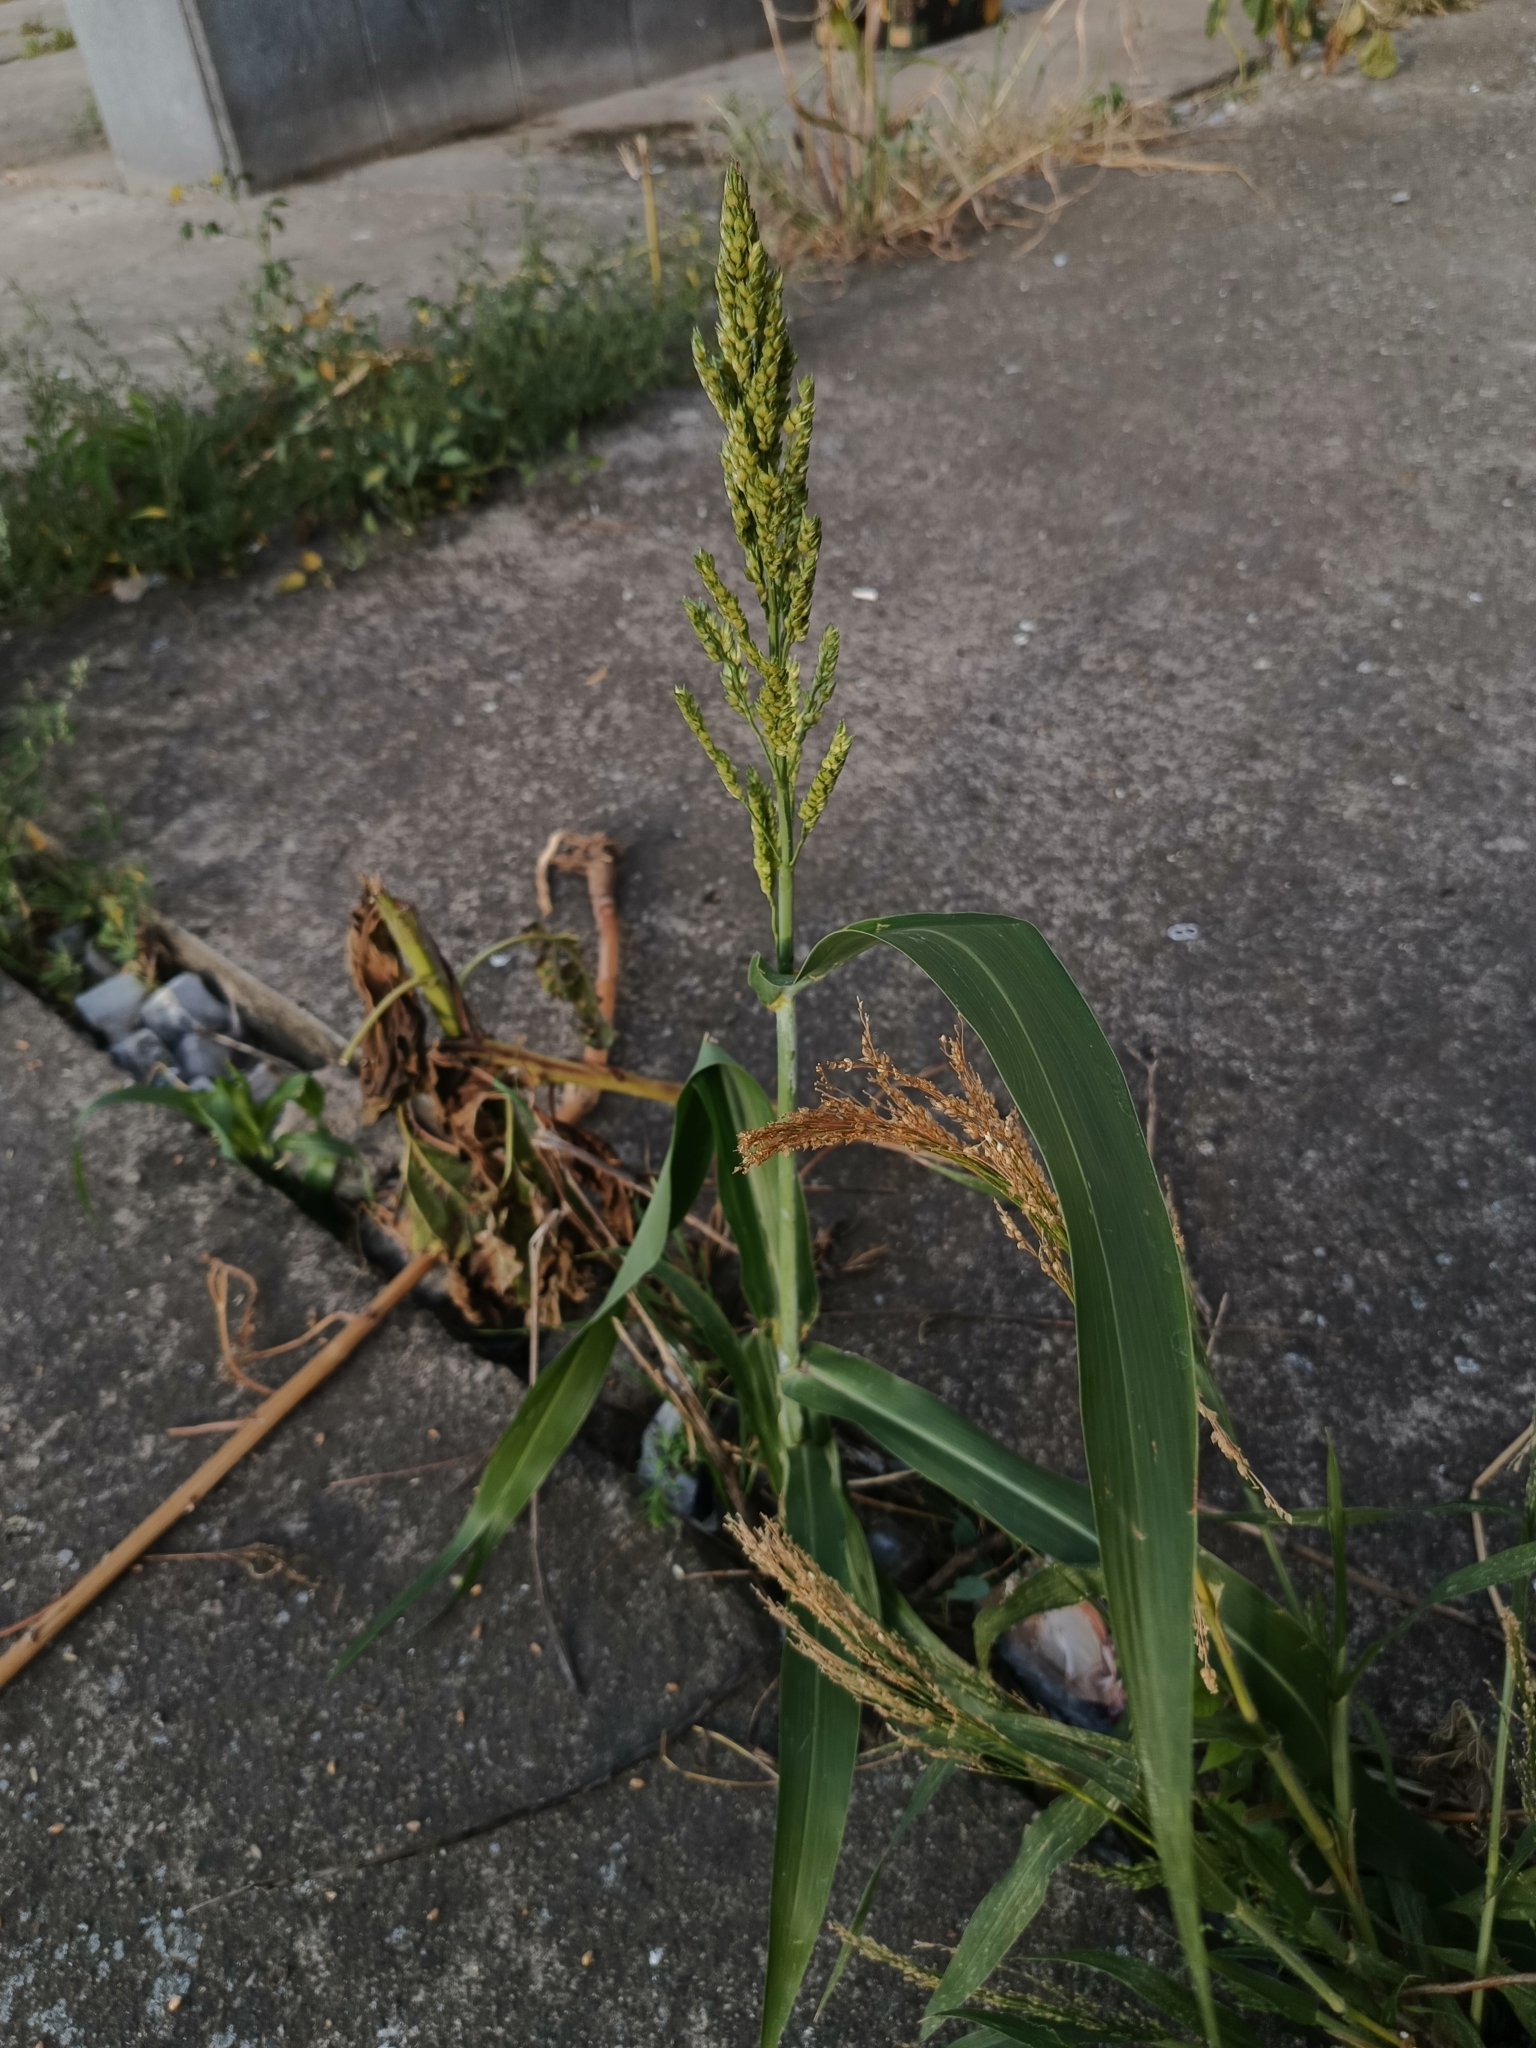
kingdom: Plantae
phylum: Tracheophyta
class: Liliopsida
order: Poales
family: Poaceae
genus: Panicum
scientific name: Panicum miliaceum
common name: Common millet
